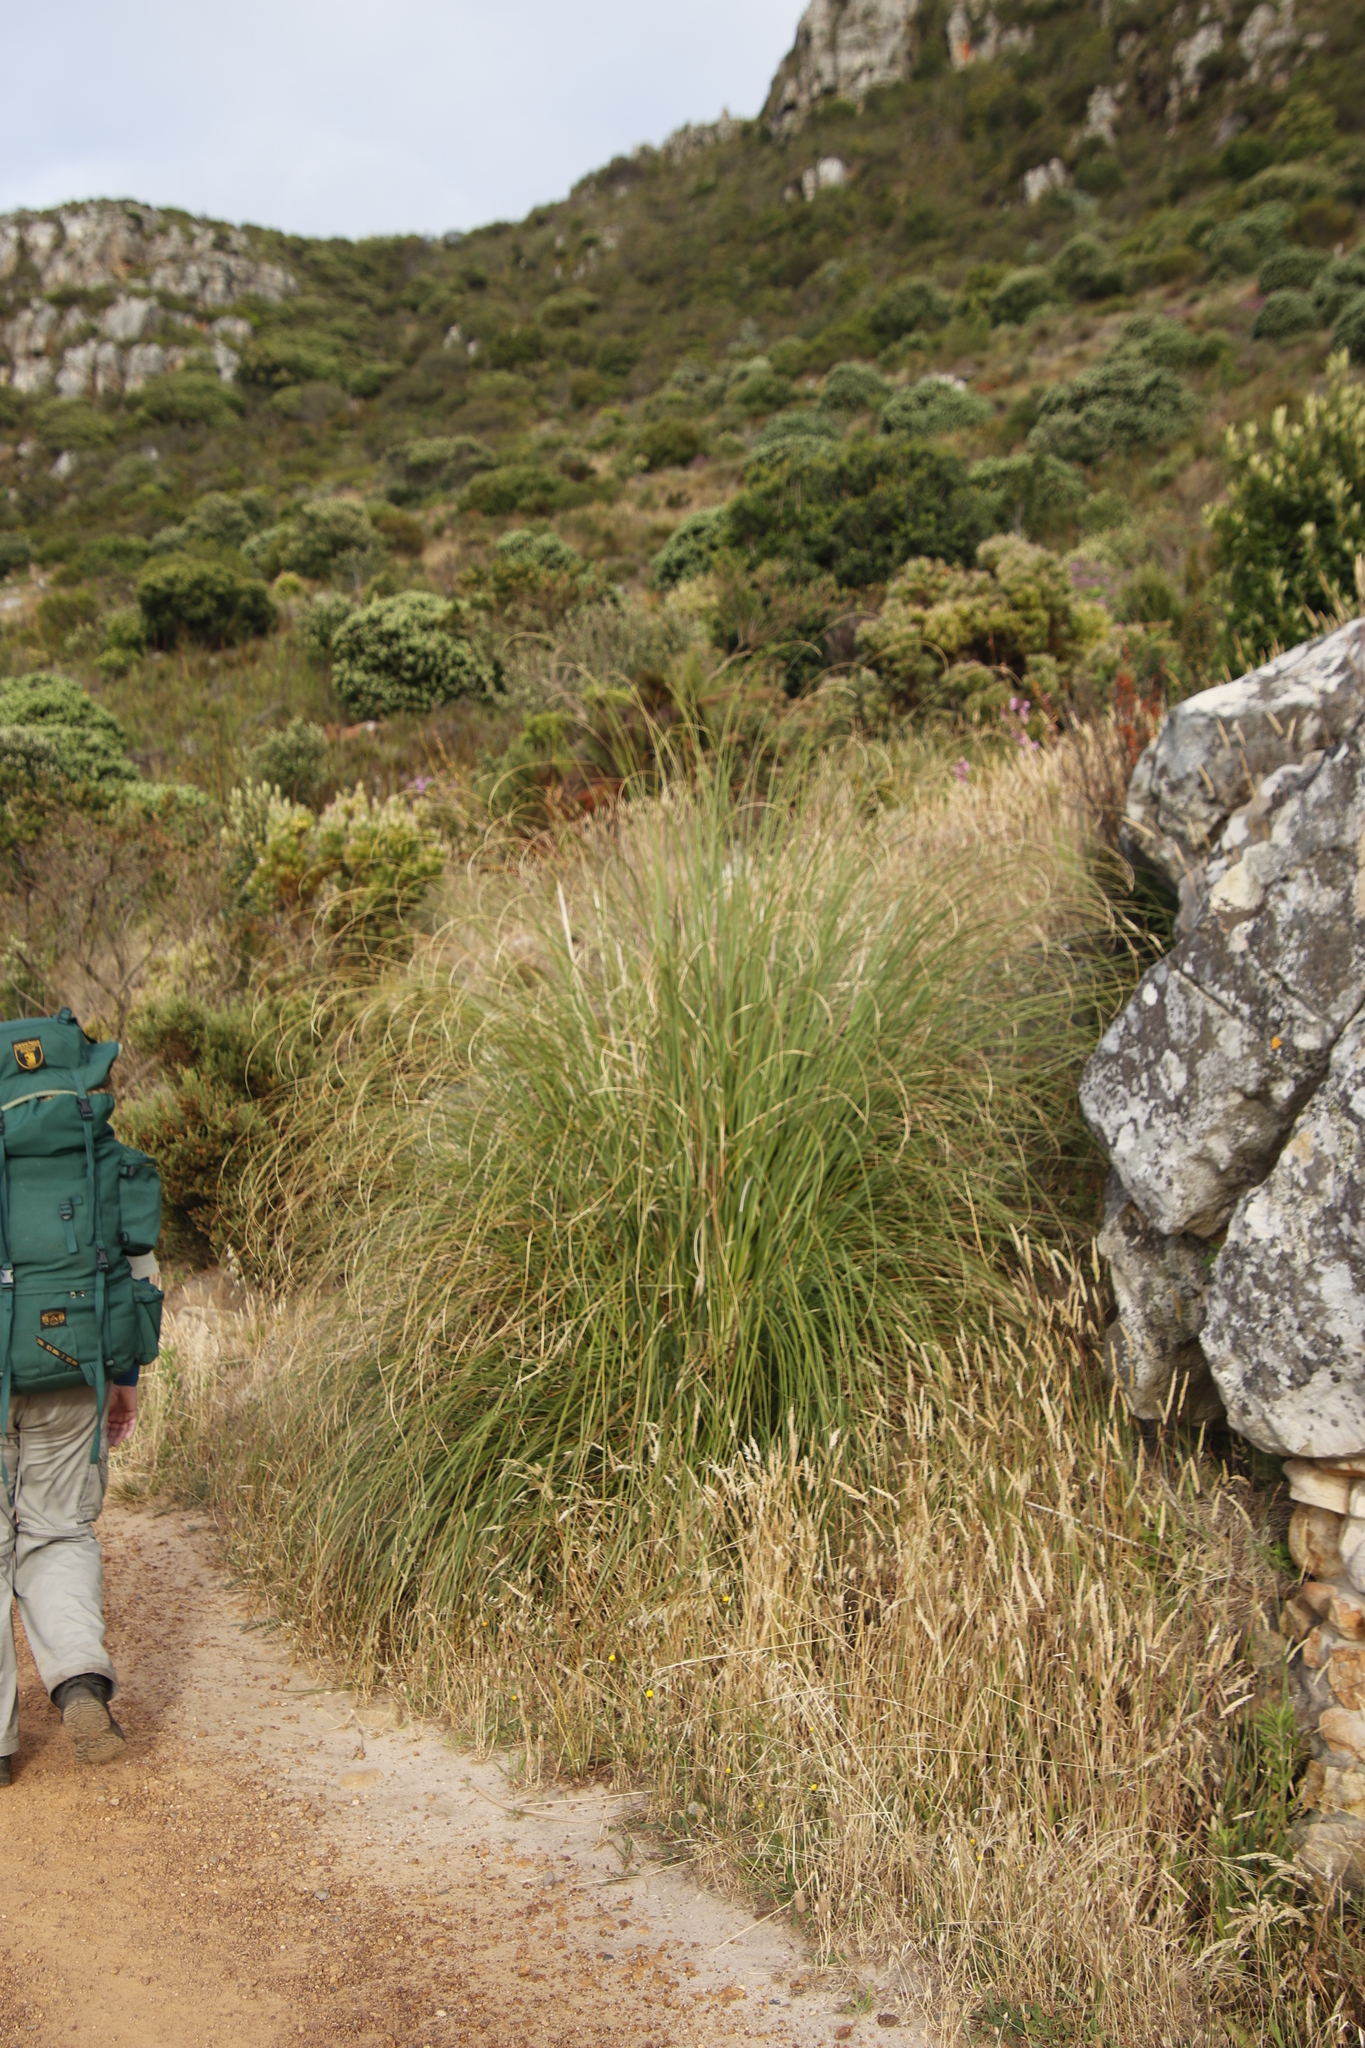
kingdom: Plantae
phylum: Tracheophyta
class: Liliopsida
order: Poales
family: Poaceae
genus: Cortaderia
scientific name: Cortaderia selloana
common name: Uruguayan pampas grass
